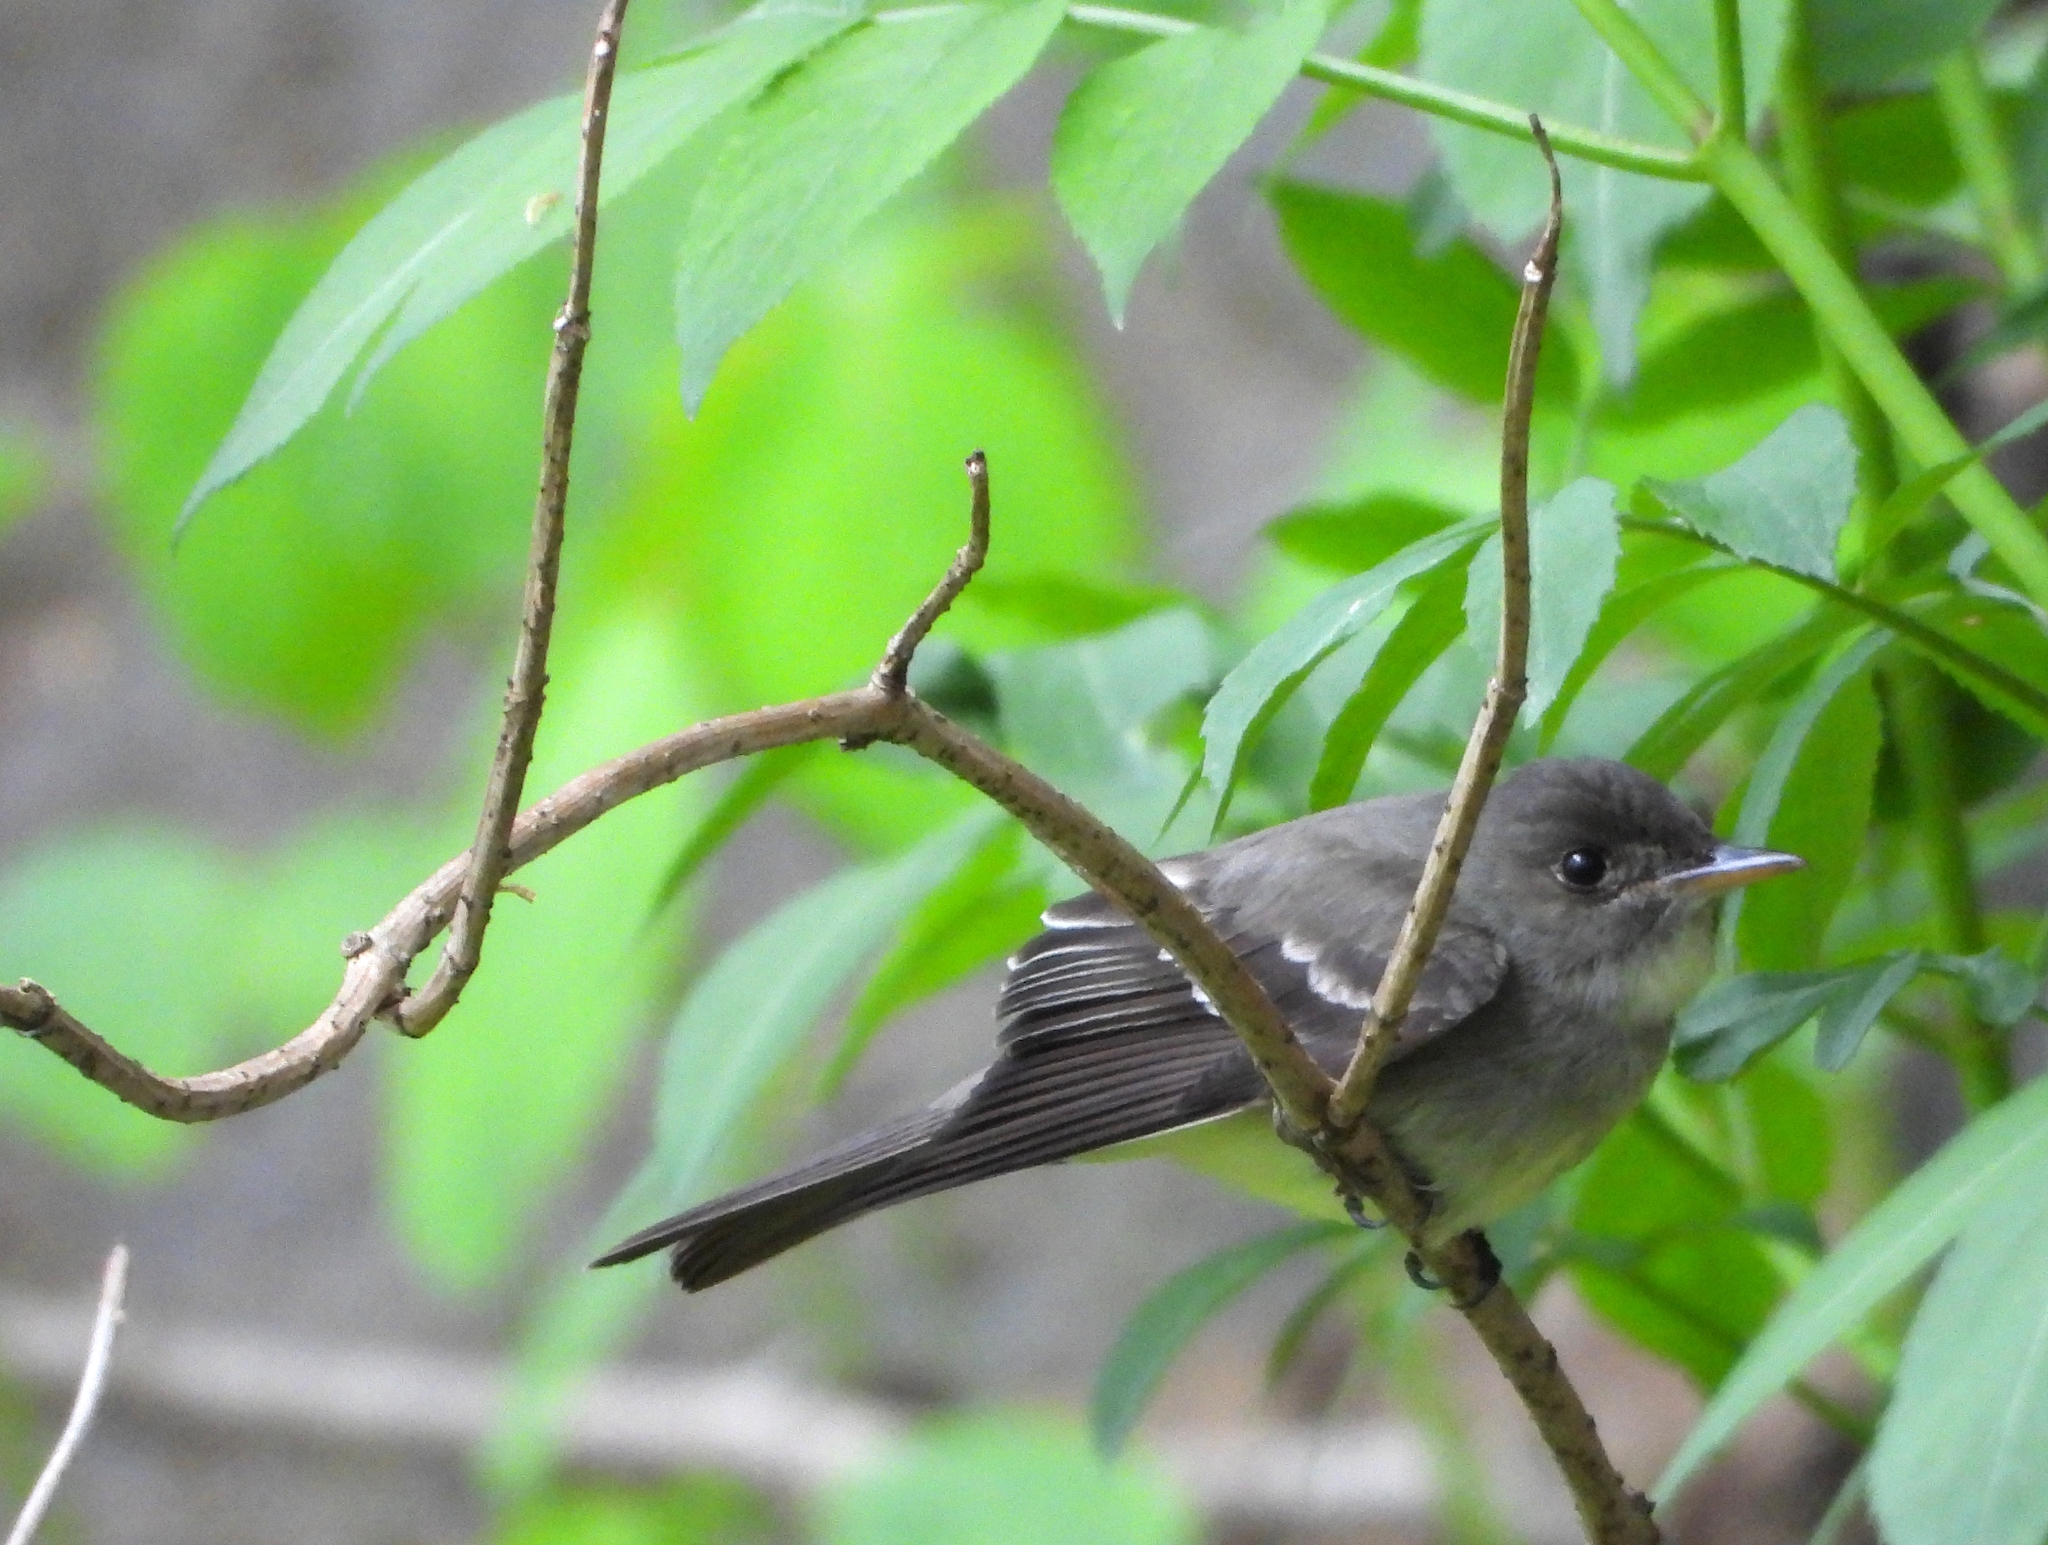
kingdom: Animalia
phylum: Chordata
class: Aves
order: Passeriformes
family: Tyrannidae
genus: Contopus
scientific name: Contopus virens
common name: Eastern wood-pewee
